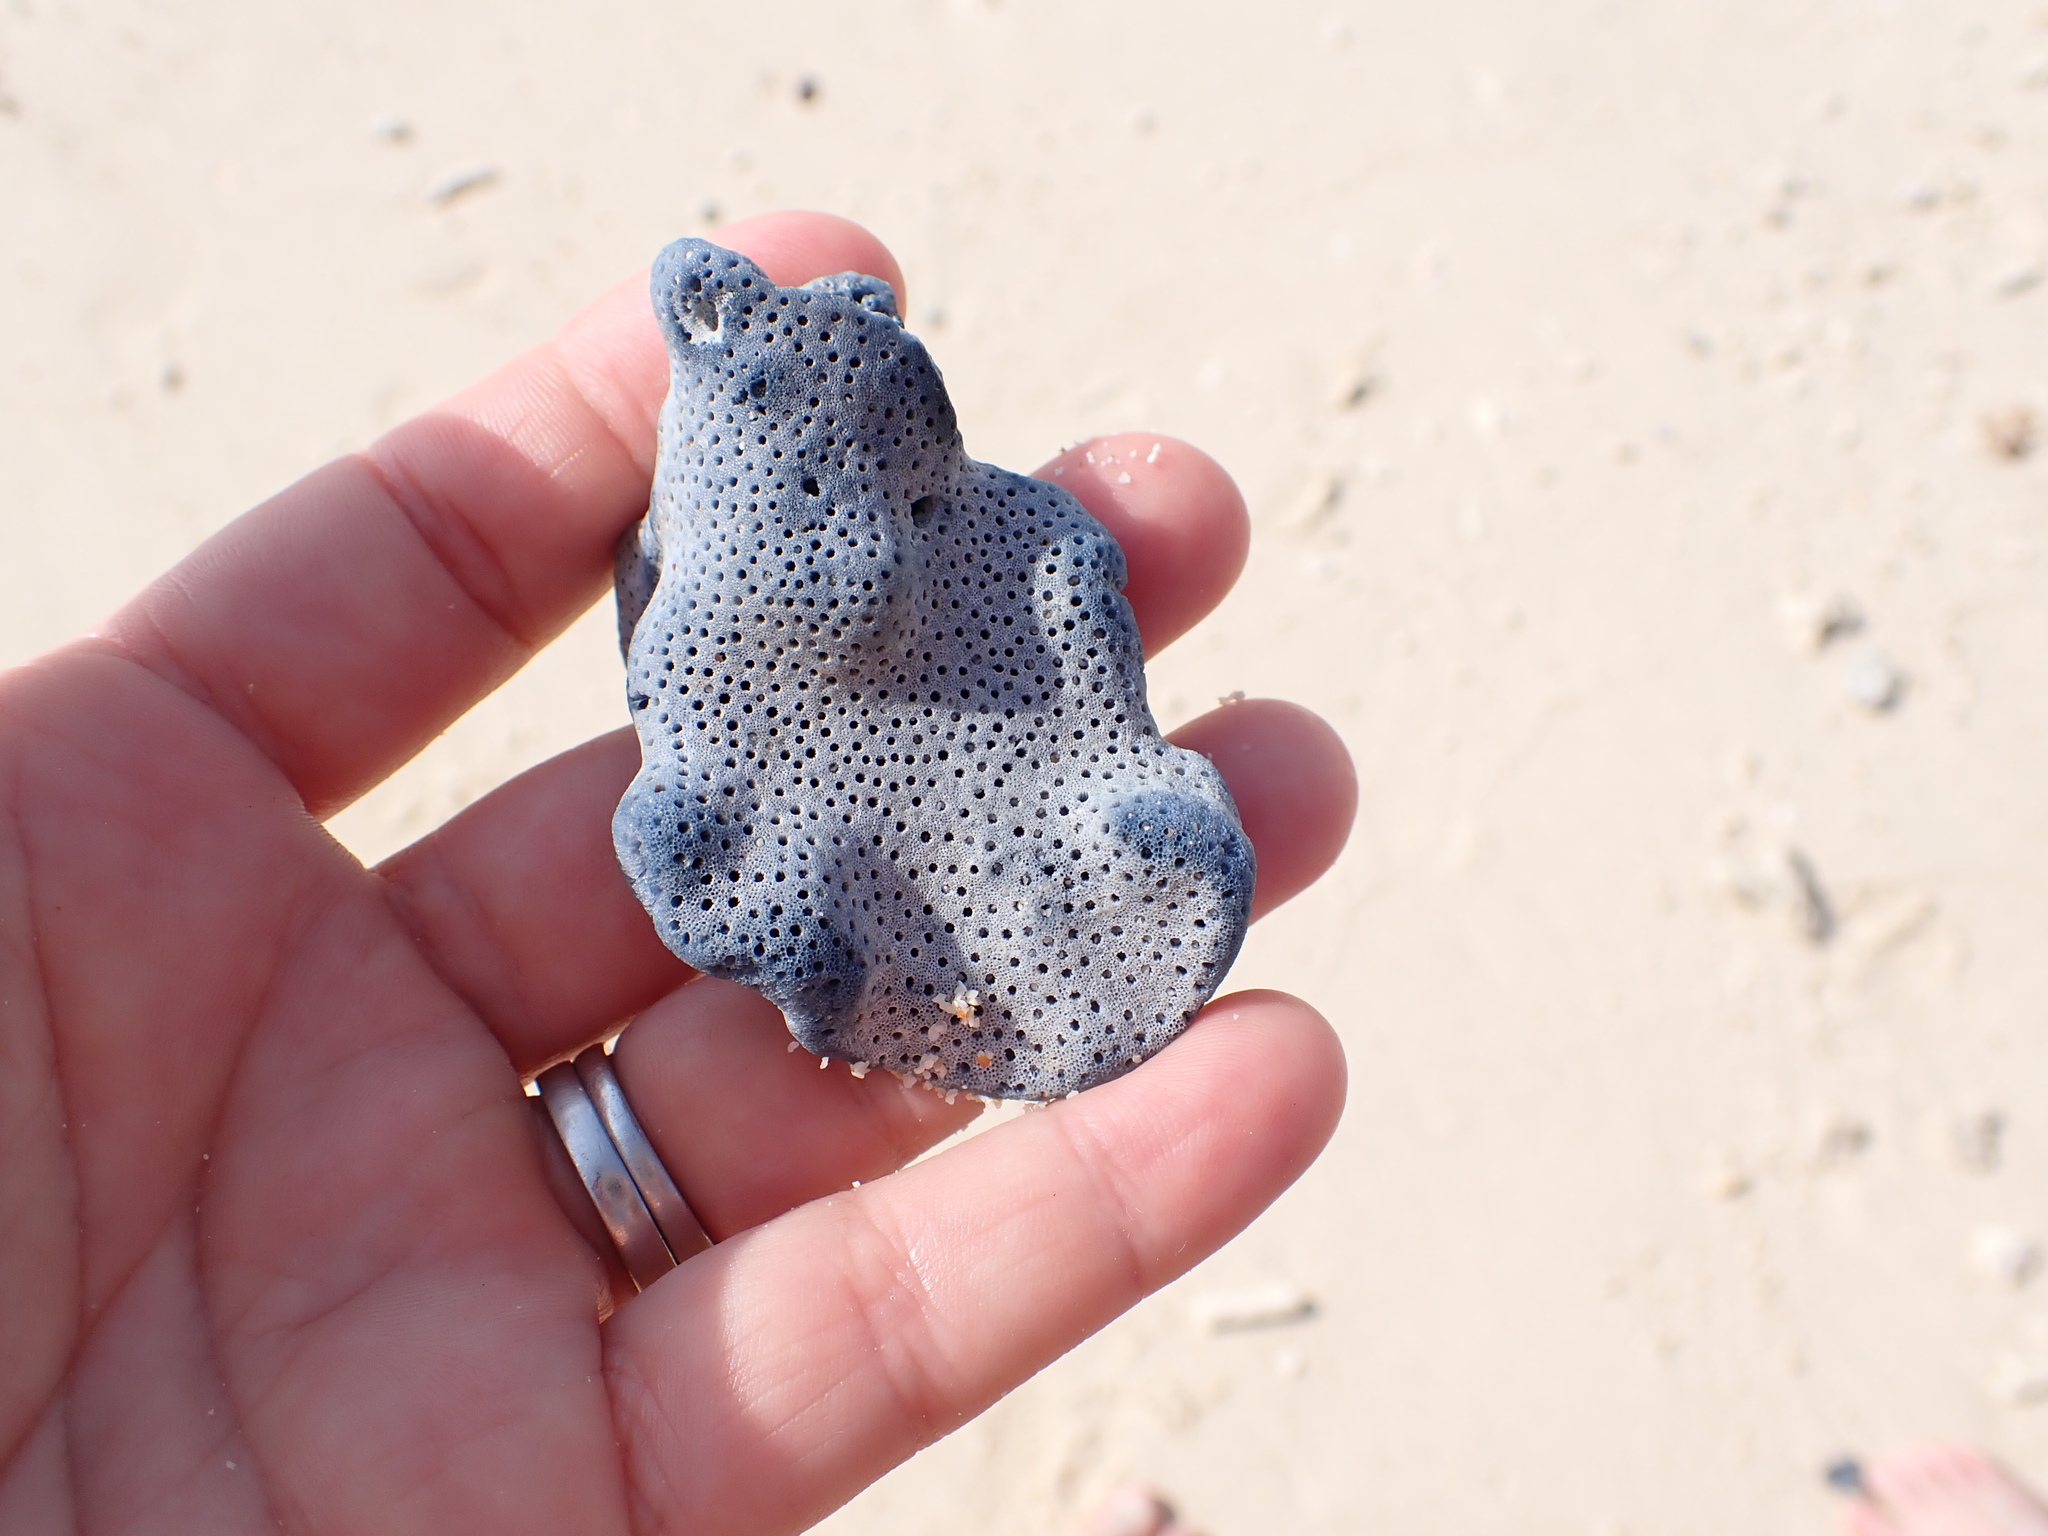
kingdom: Animalia
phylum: Cnidaria
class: Anthozoa
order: Scleralcyonacea
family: Helioporidae
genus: Heliopora
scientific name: Heliopora coerulea
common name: Blue coral
